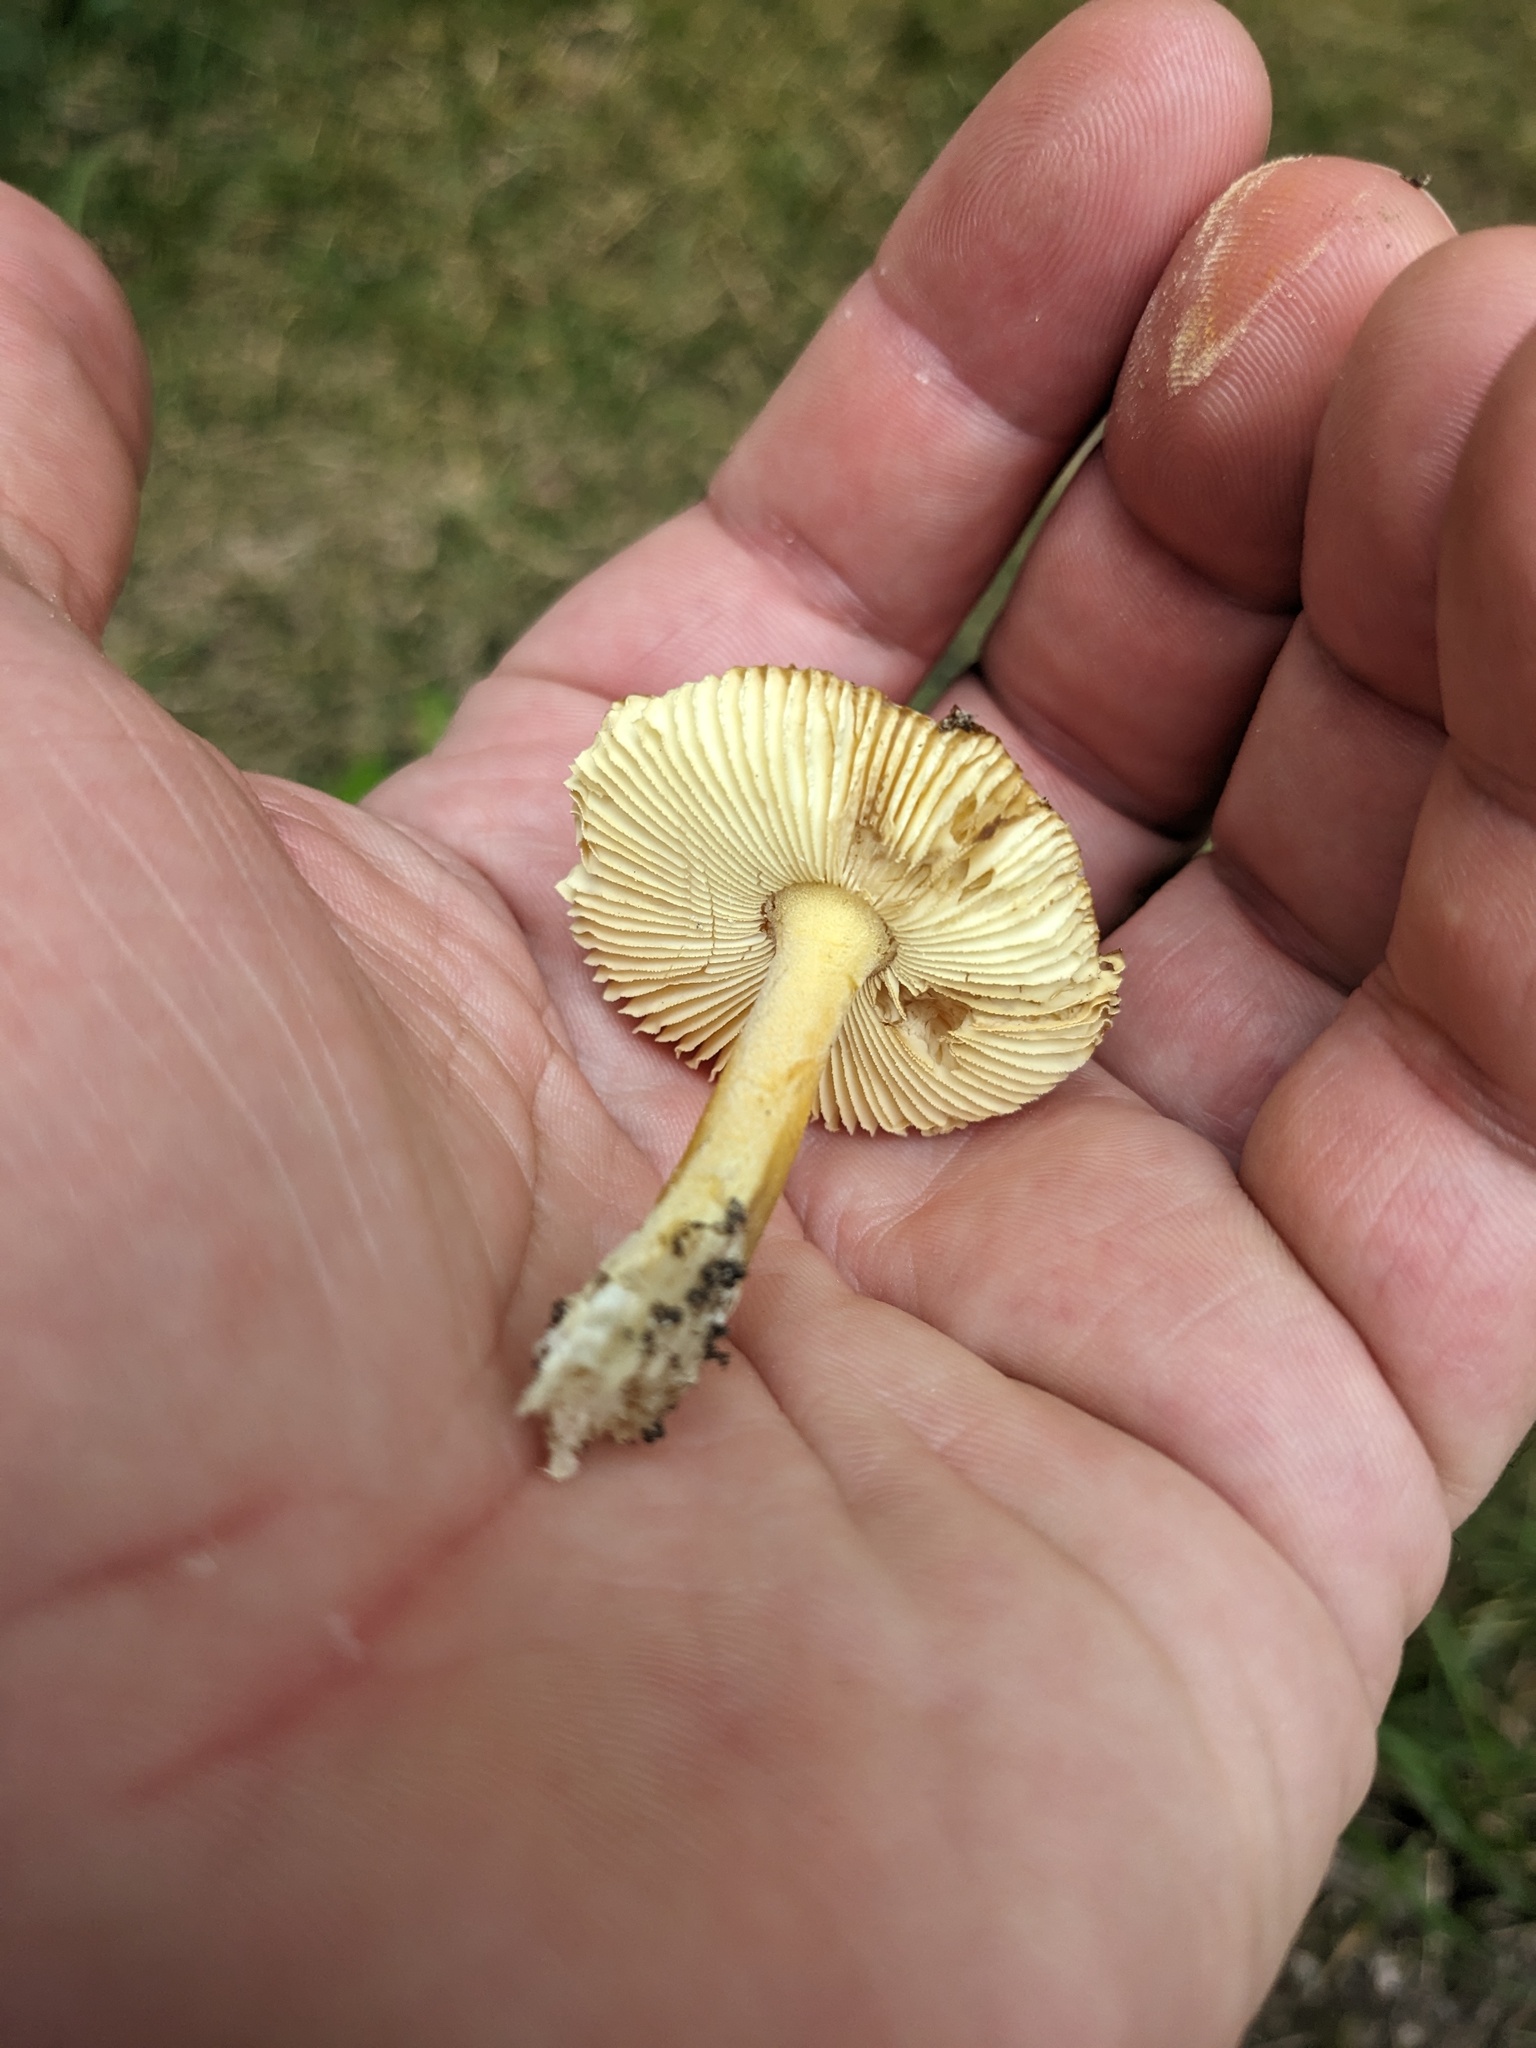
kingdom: Fungi
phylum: Basidiomycota
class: Agaricomycetes
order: Agaricales
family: Amanitaceae
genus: Amanita
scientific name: Amanita parcivolvata
